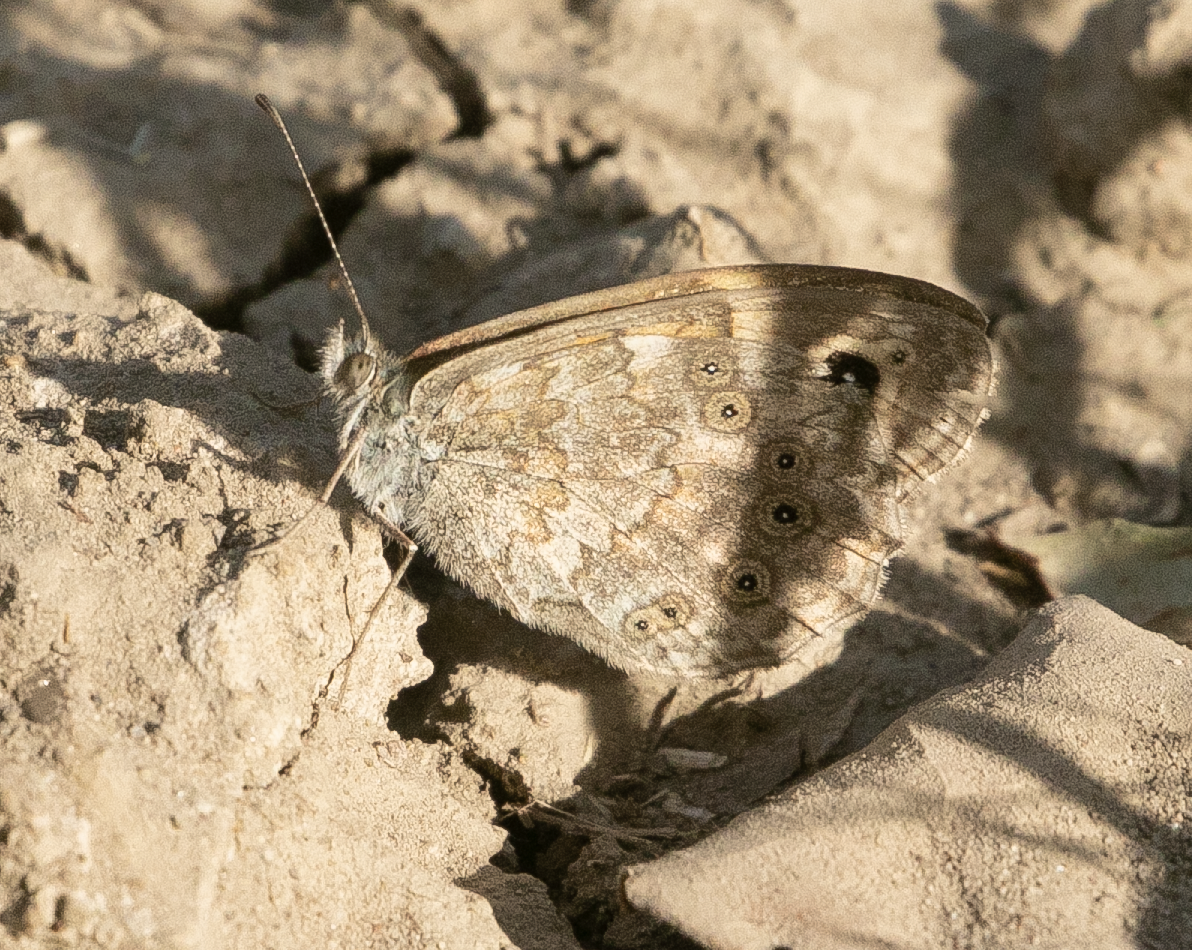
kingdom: Animalia
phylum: Arthropoda
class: Insecta
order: Lepidoptera
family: Nymphalidae
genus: Pararge
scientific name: Pararge Lasiommata megera
